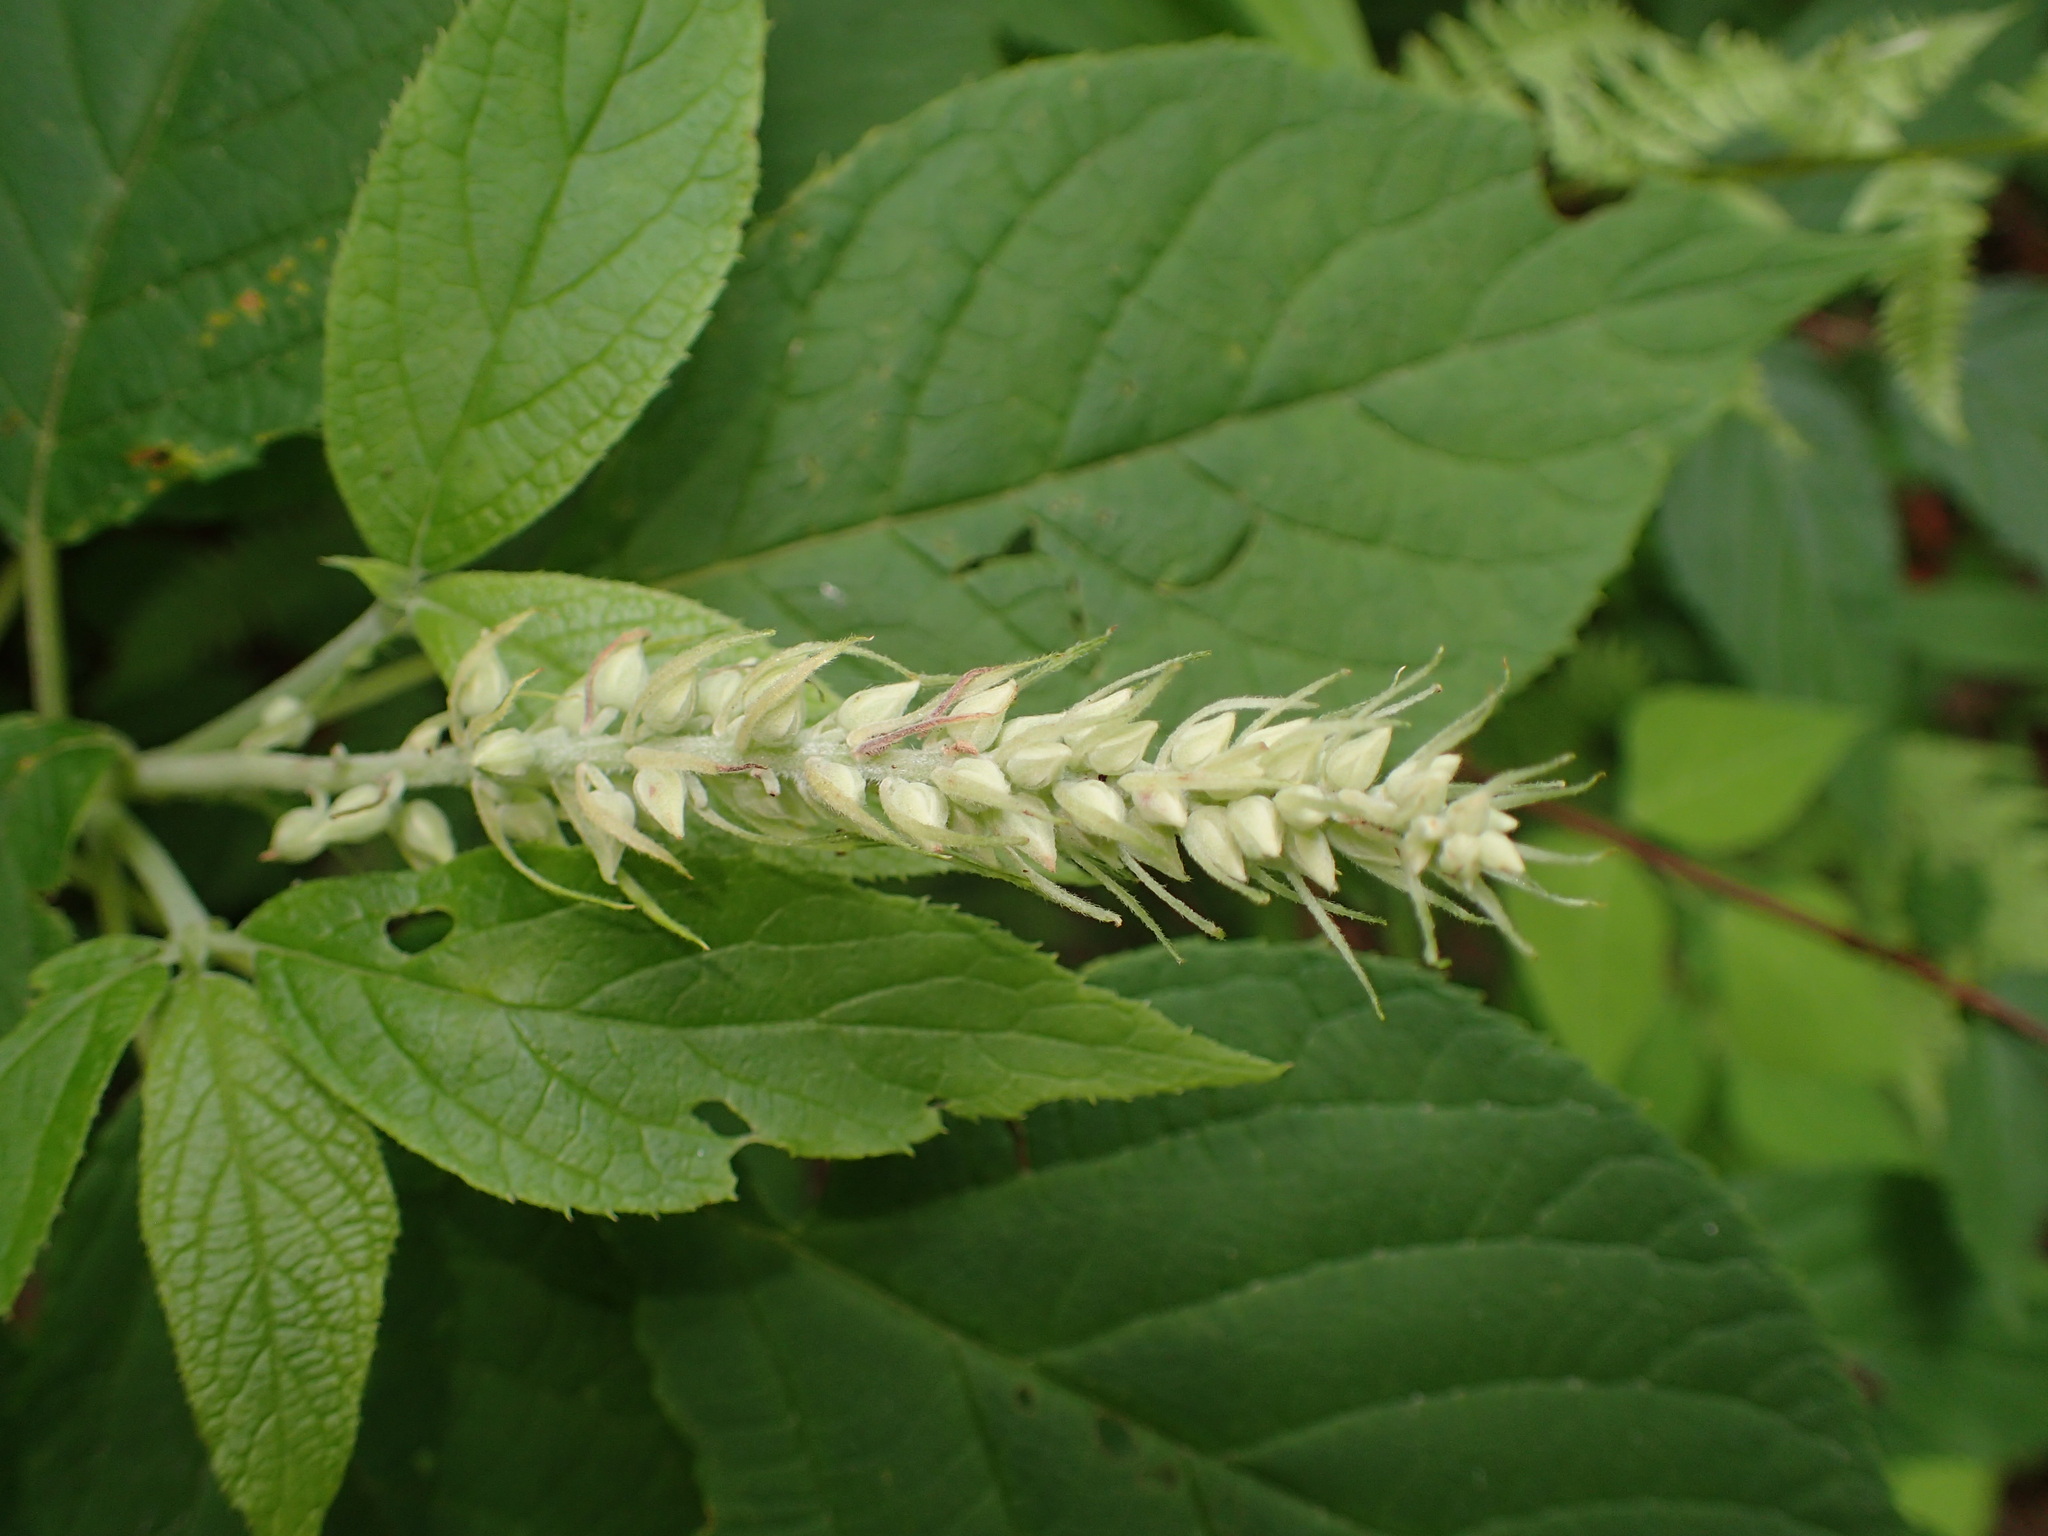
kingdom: Plantae
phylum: Tracheophyta
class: Magnoliopsida
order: Ericales
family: Clethraceae
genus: Clethra
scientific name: Clethra acuminata
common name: Mountain sweet pepperbush
